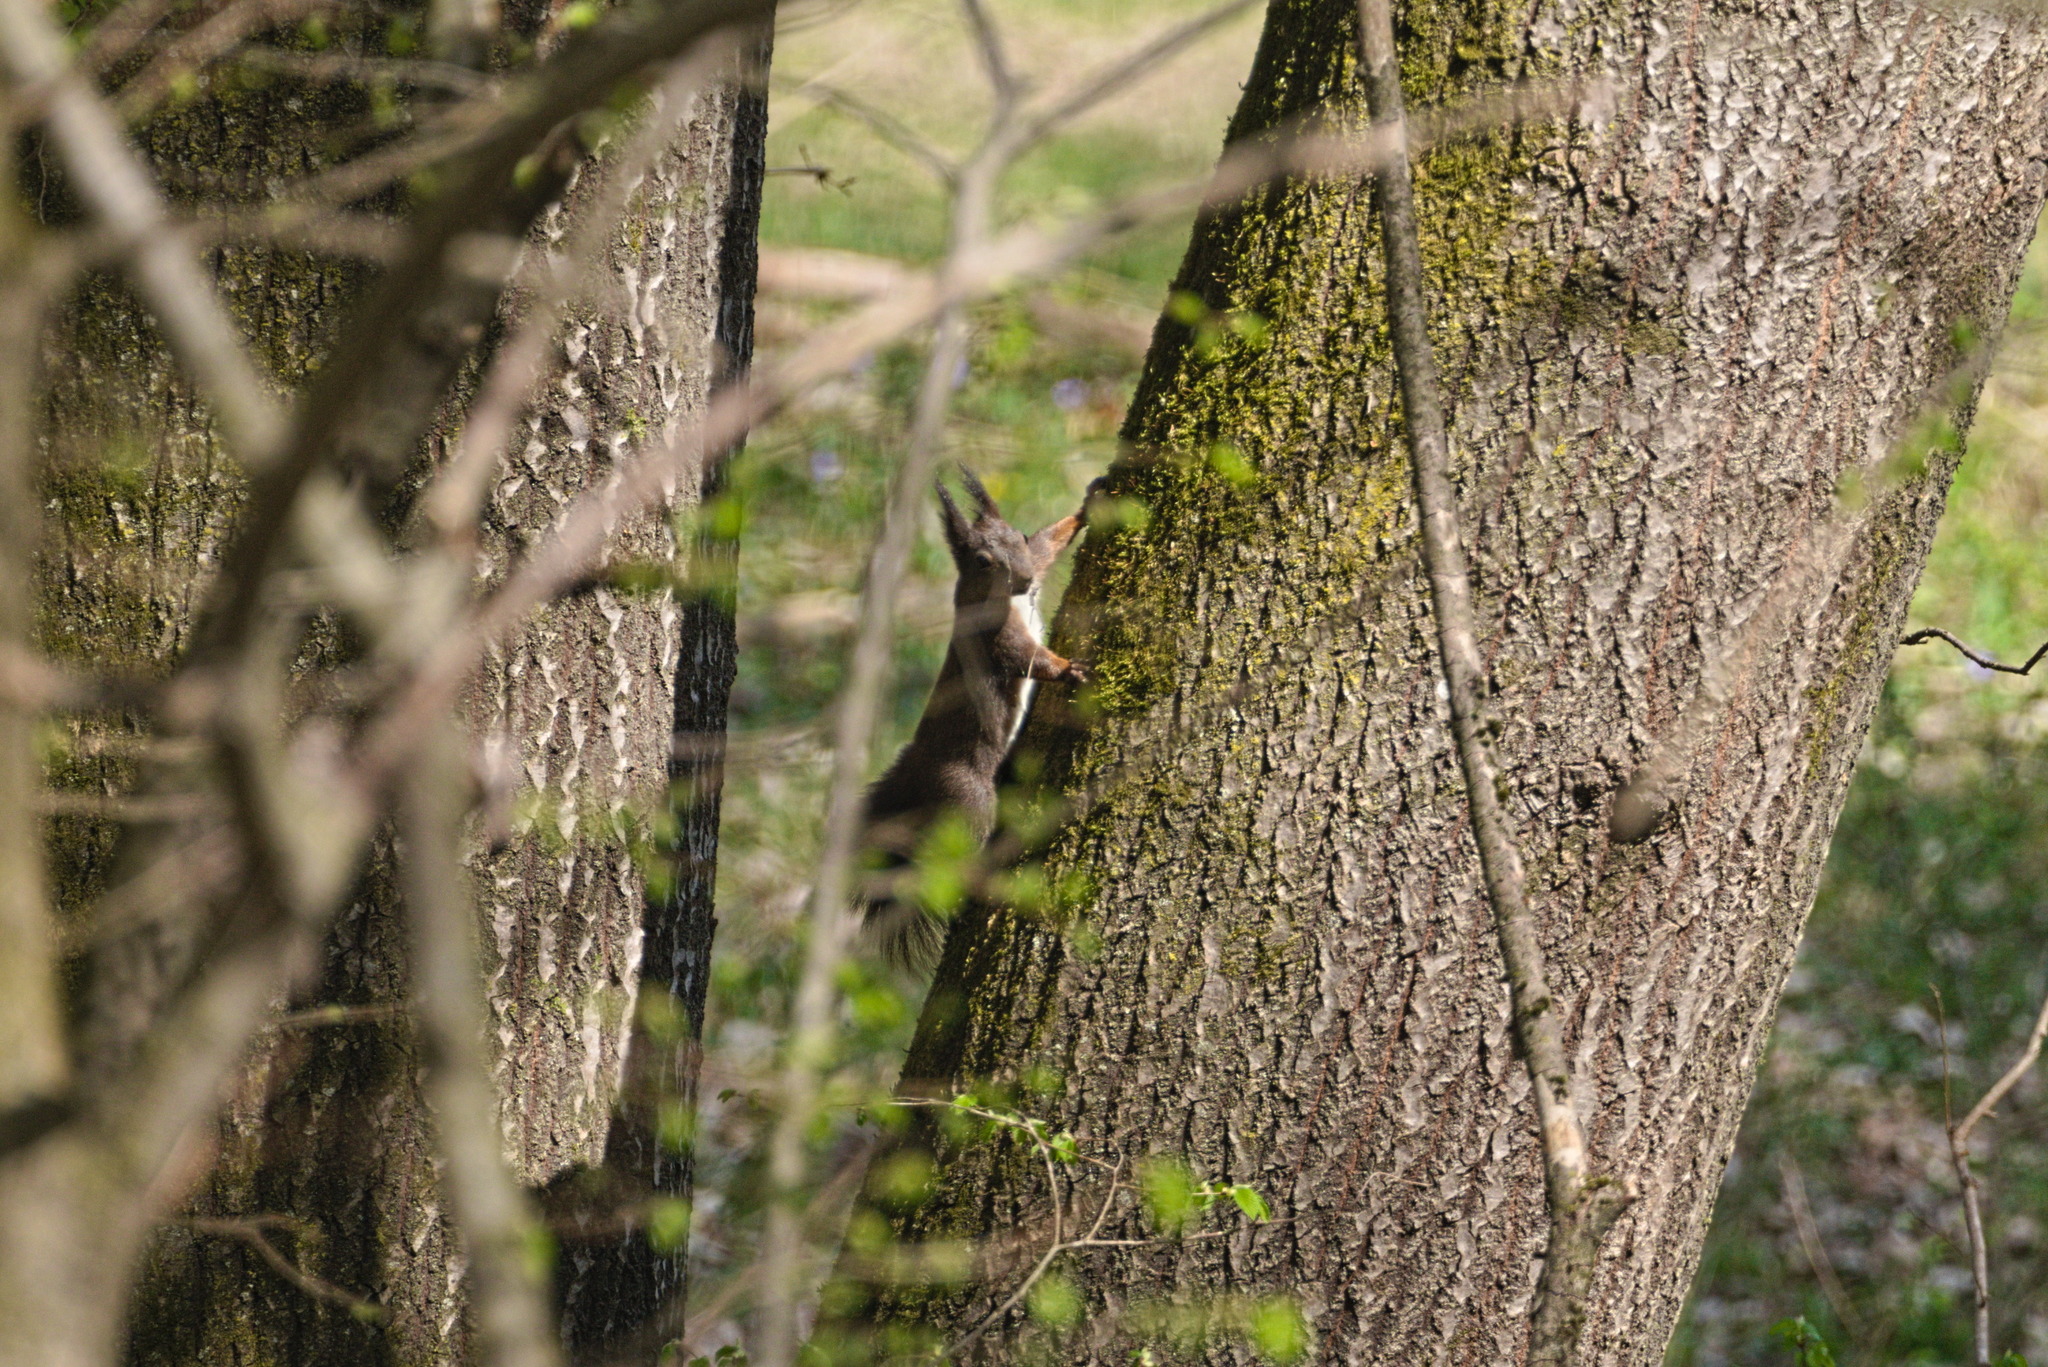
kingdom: Animalia
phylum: Chordata
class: Mammalia
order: Rodentia
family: Sciuridae
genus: Sciurus
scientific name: Sciurus vulgaris
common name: Eurasian red squirrel
